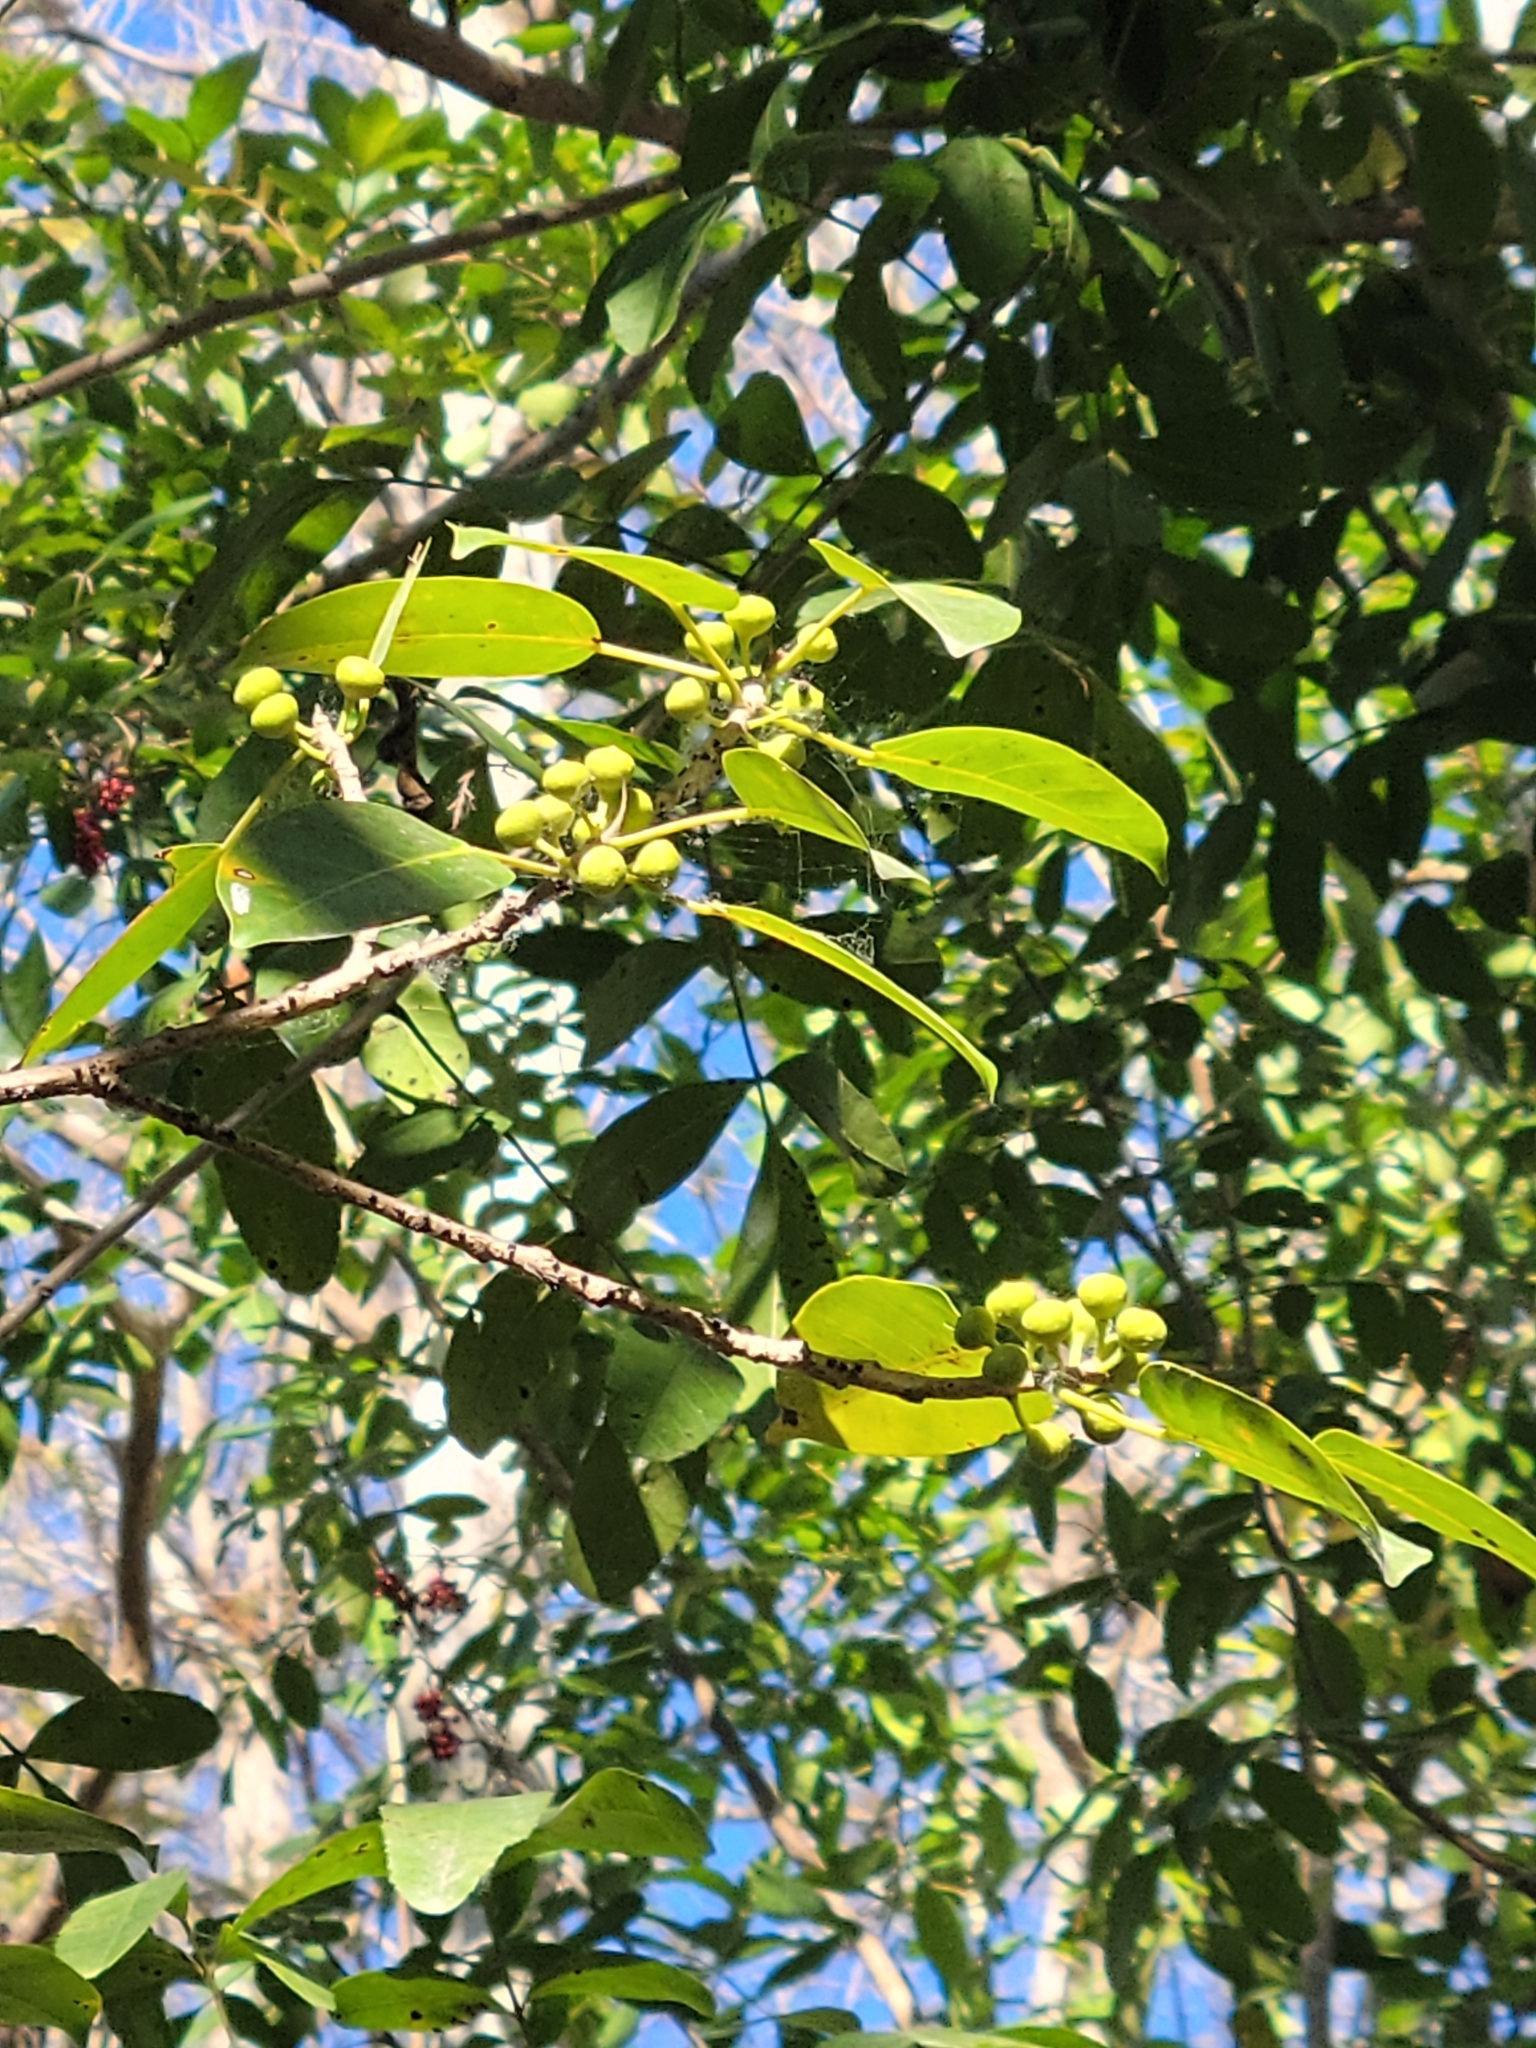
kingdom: Plantae
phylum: Tracheophyta
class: Magnoliopsida
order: Rosales
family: Moraceae
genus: Ficus
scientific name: Ficus citrifolia
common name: Strangler fig
